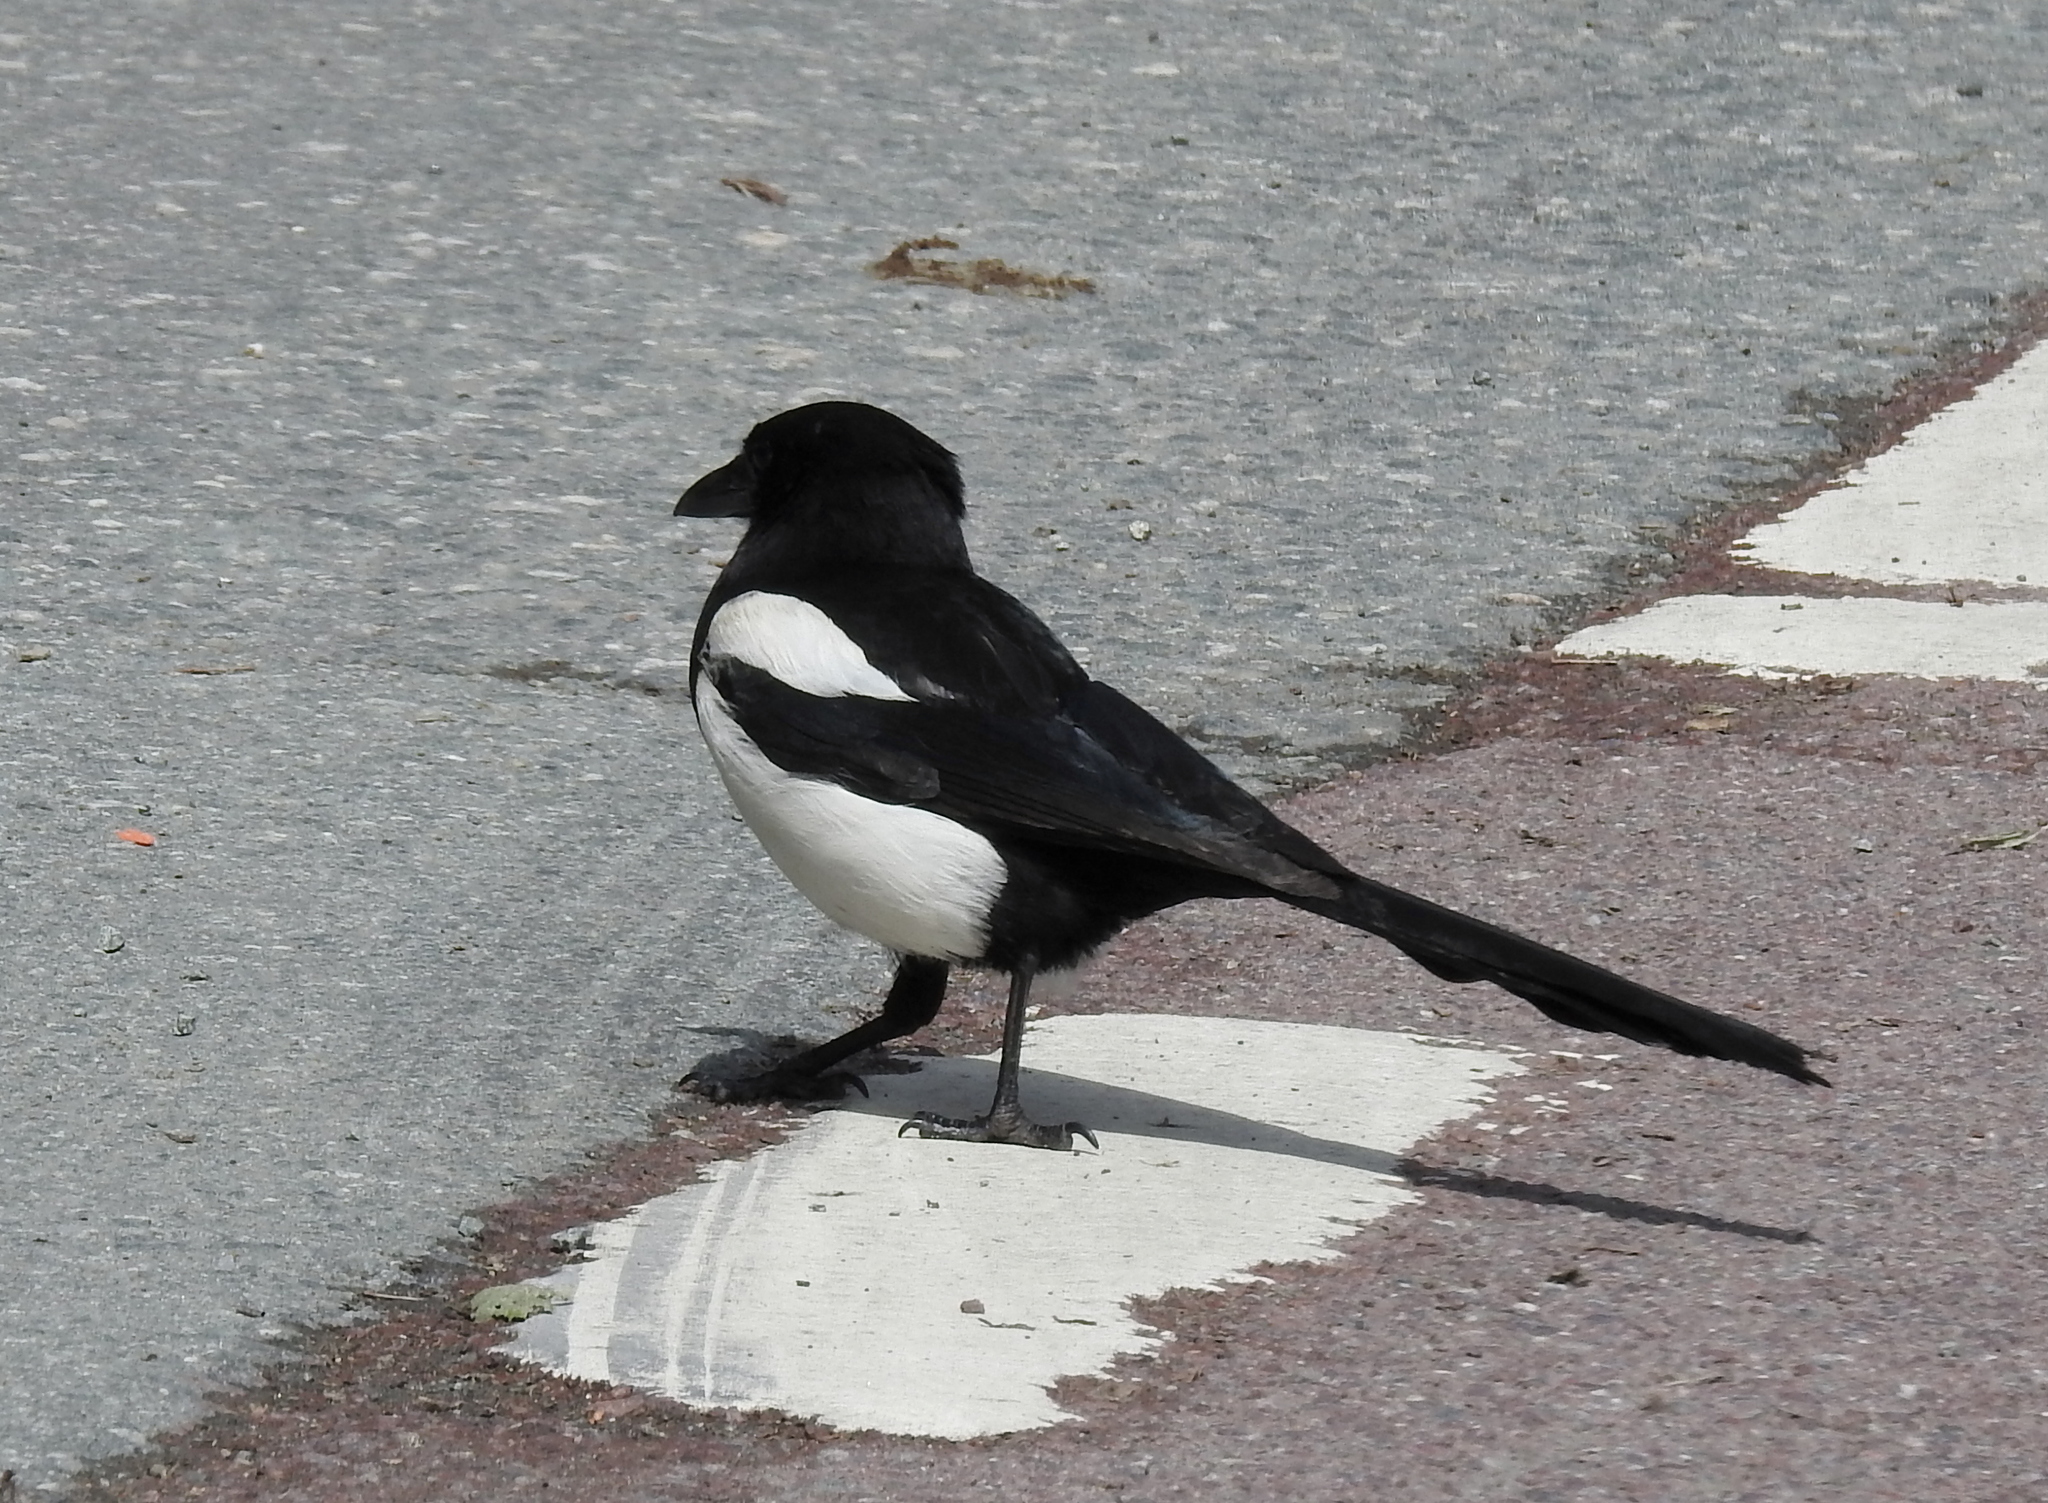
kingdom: Animalia
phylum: Chordata
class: Aves
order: Passeriformes
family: Corvidae
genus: Pica
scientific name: Pica pica
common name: Eurasian magpie
